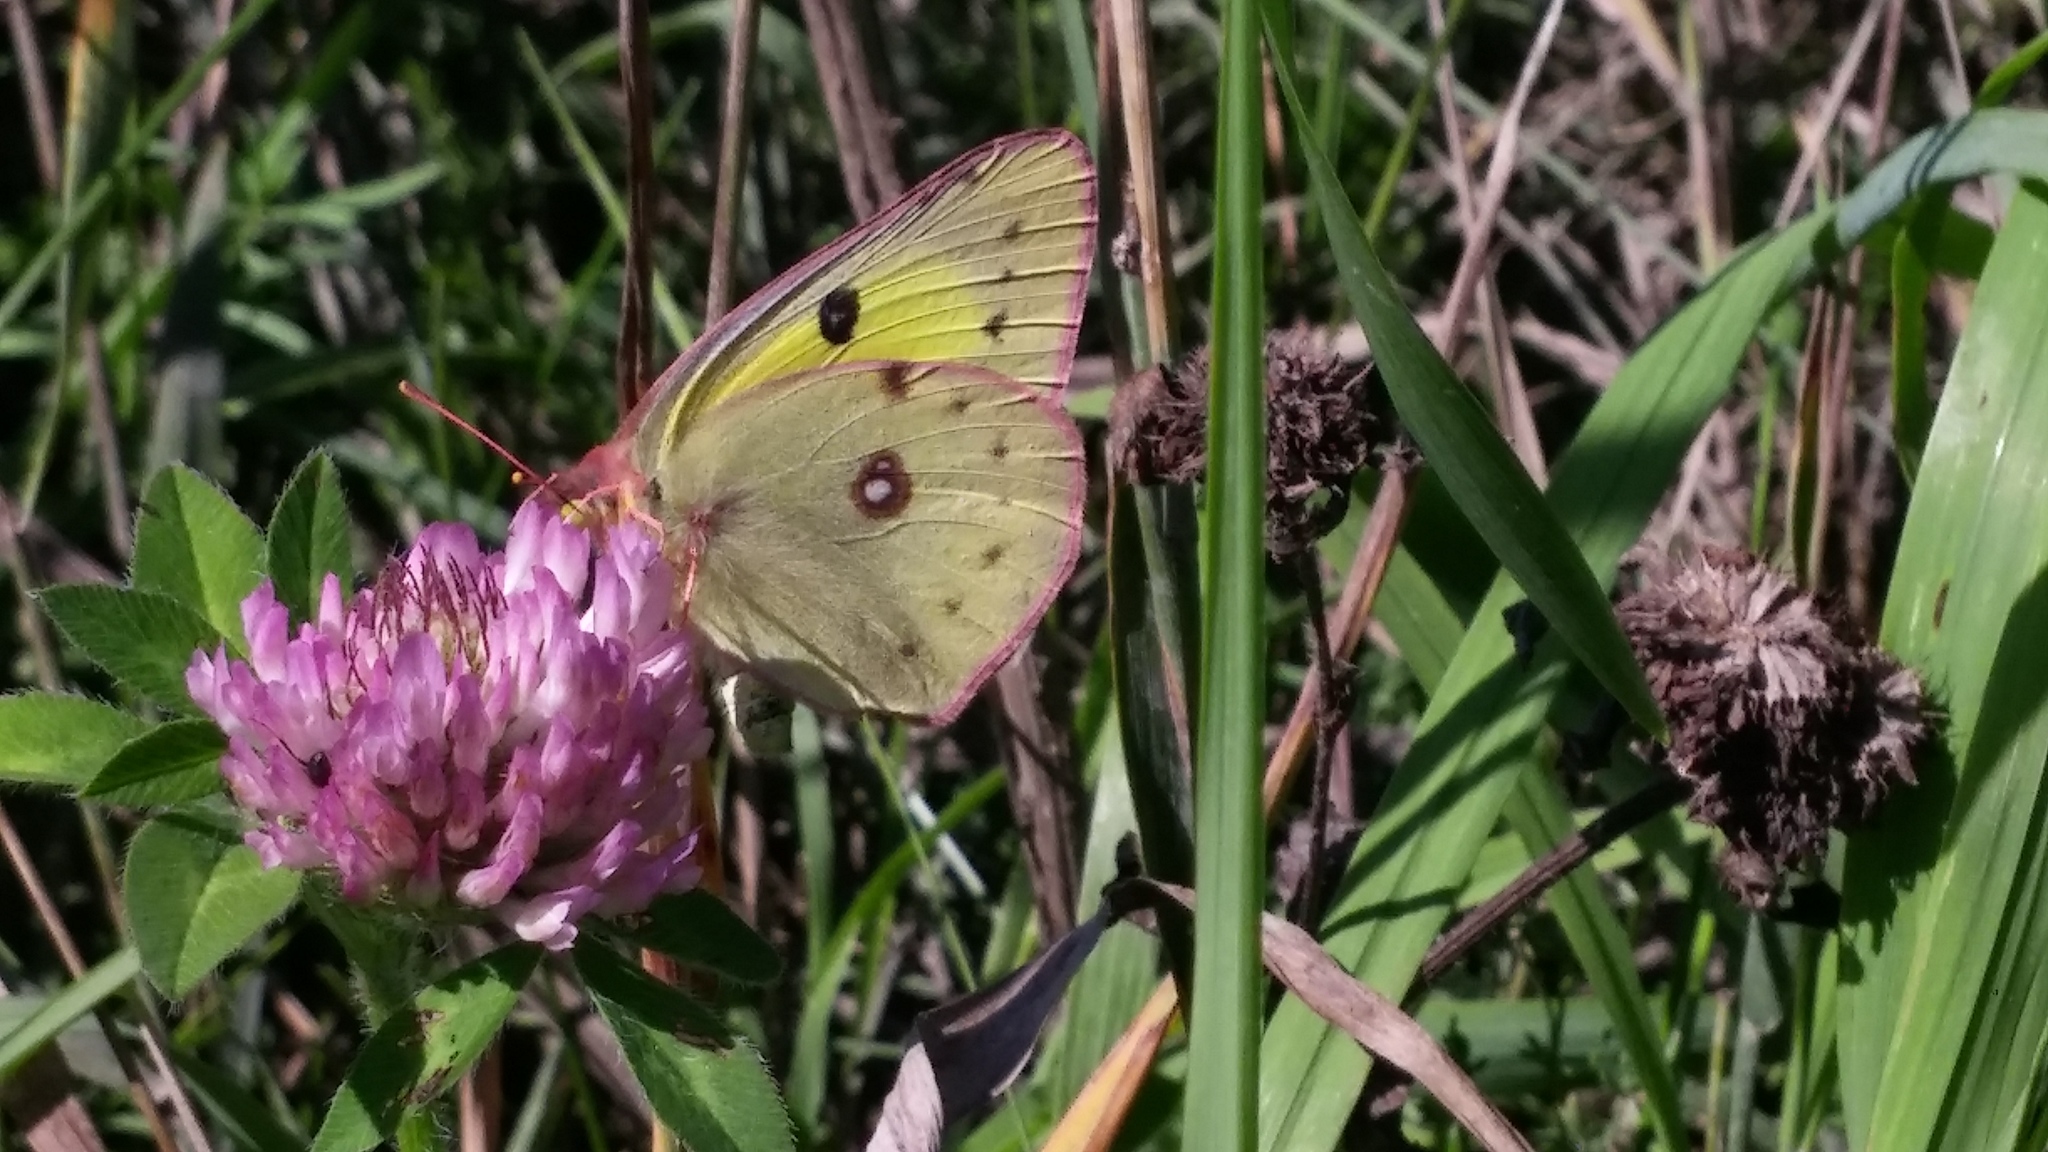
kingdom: Animalia
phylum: Arthropoda
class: Insecta
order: Lepidoptera
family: Pieridae
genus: Colias
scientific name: Colias philodice
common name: Clouded sulphur
